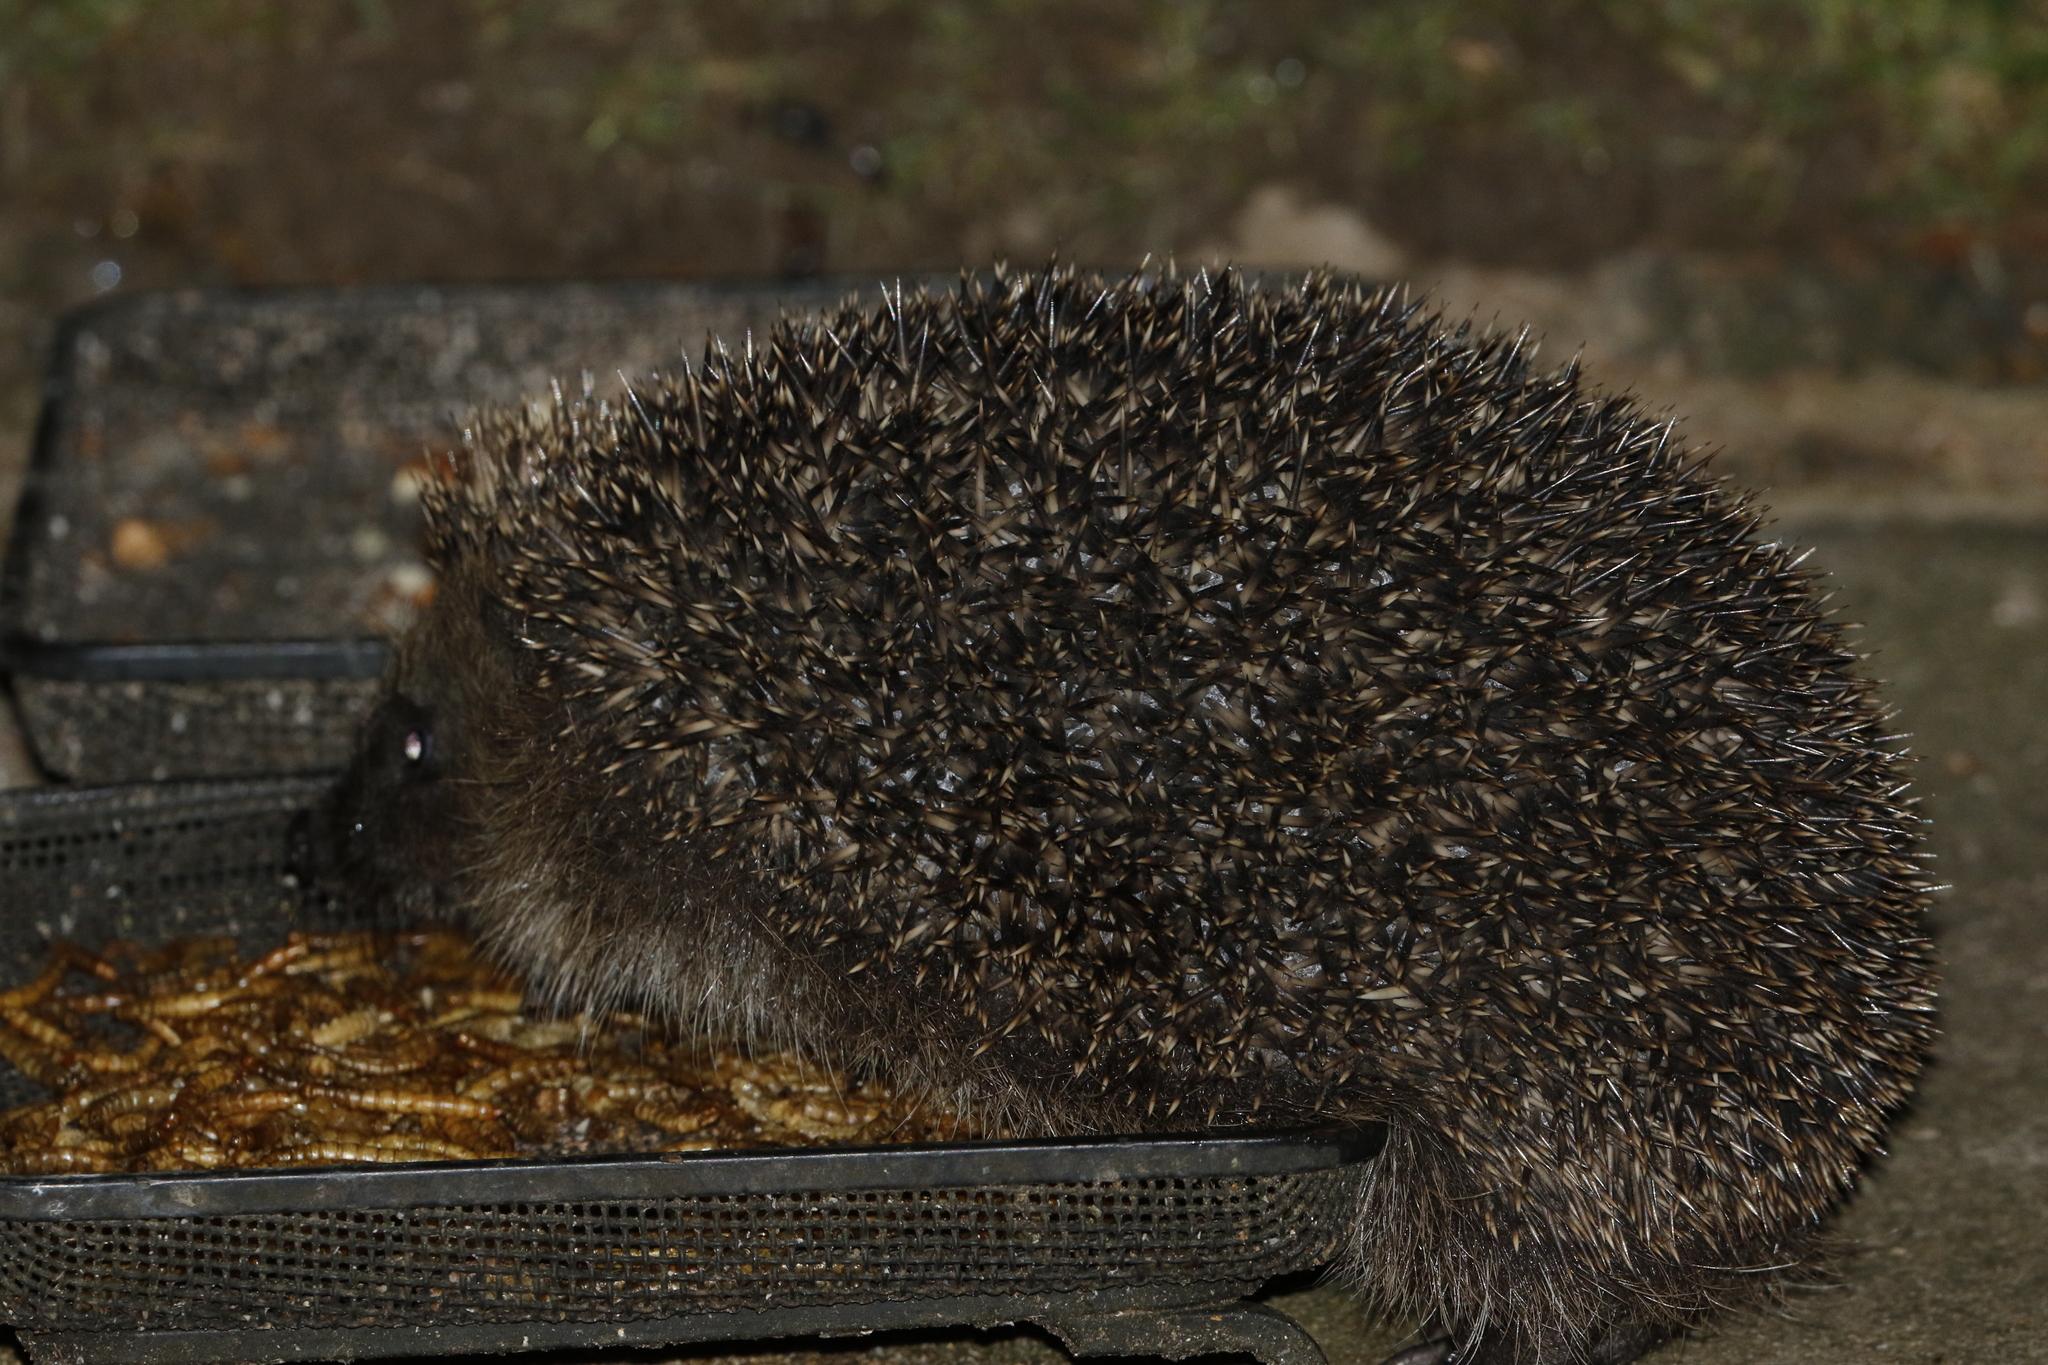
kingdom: Animalia
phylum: Chordata
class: Mammalia
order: Erinaceomorpha
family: Erinaceidae
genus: Erinaceus
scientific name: Erinaceus europaeus
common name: West european hedgehog
